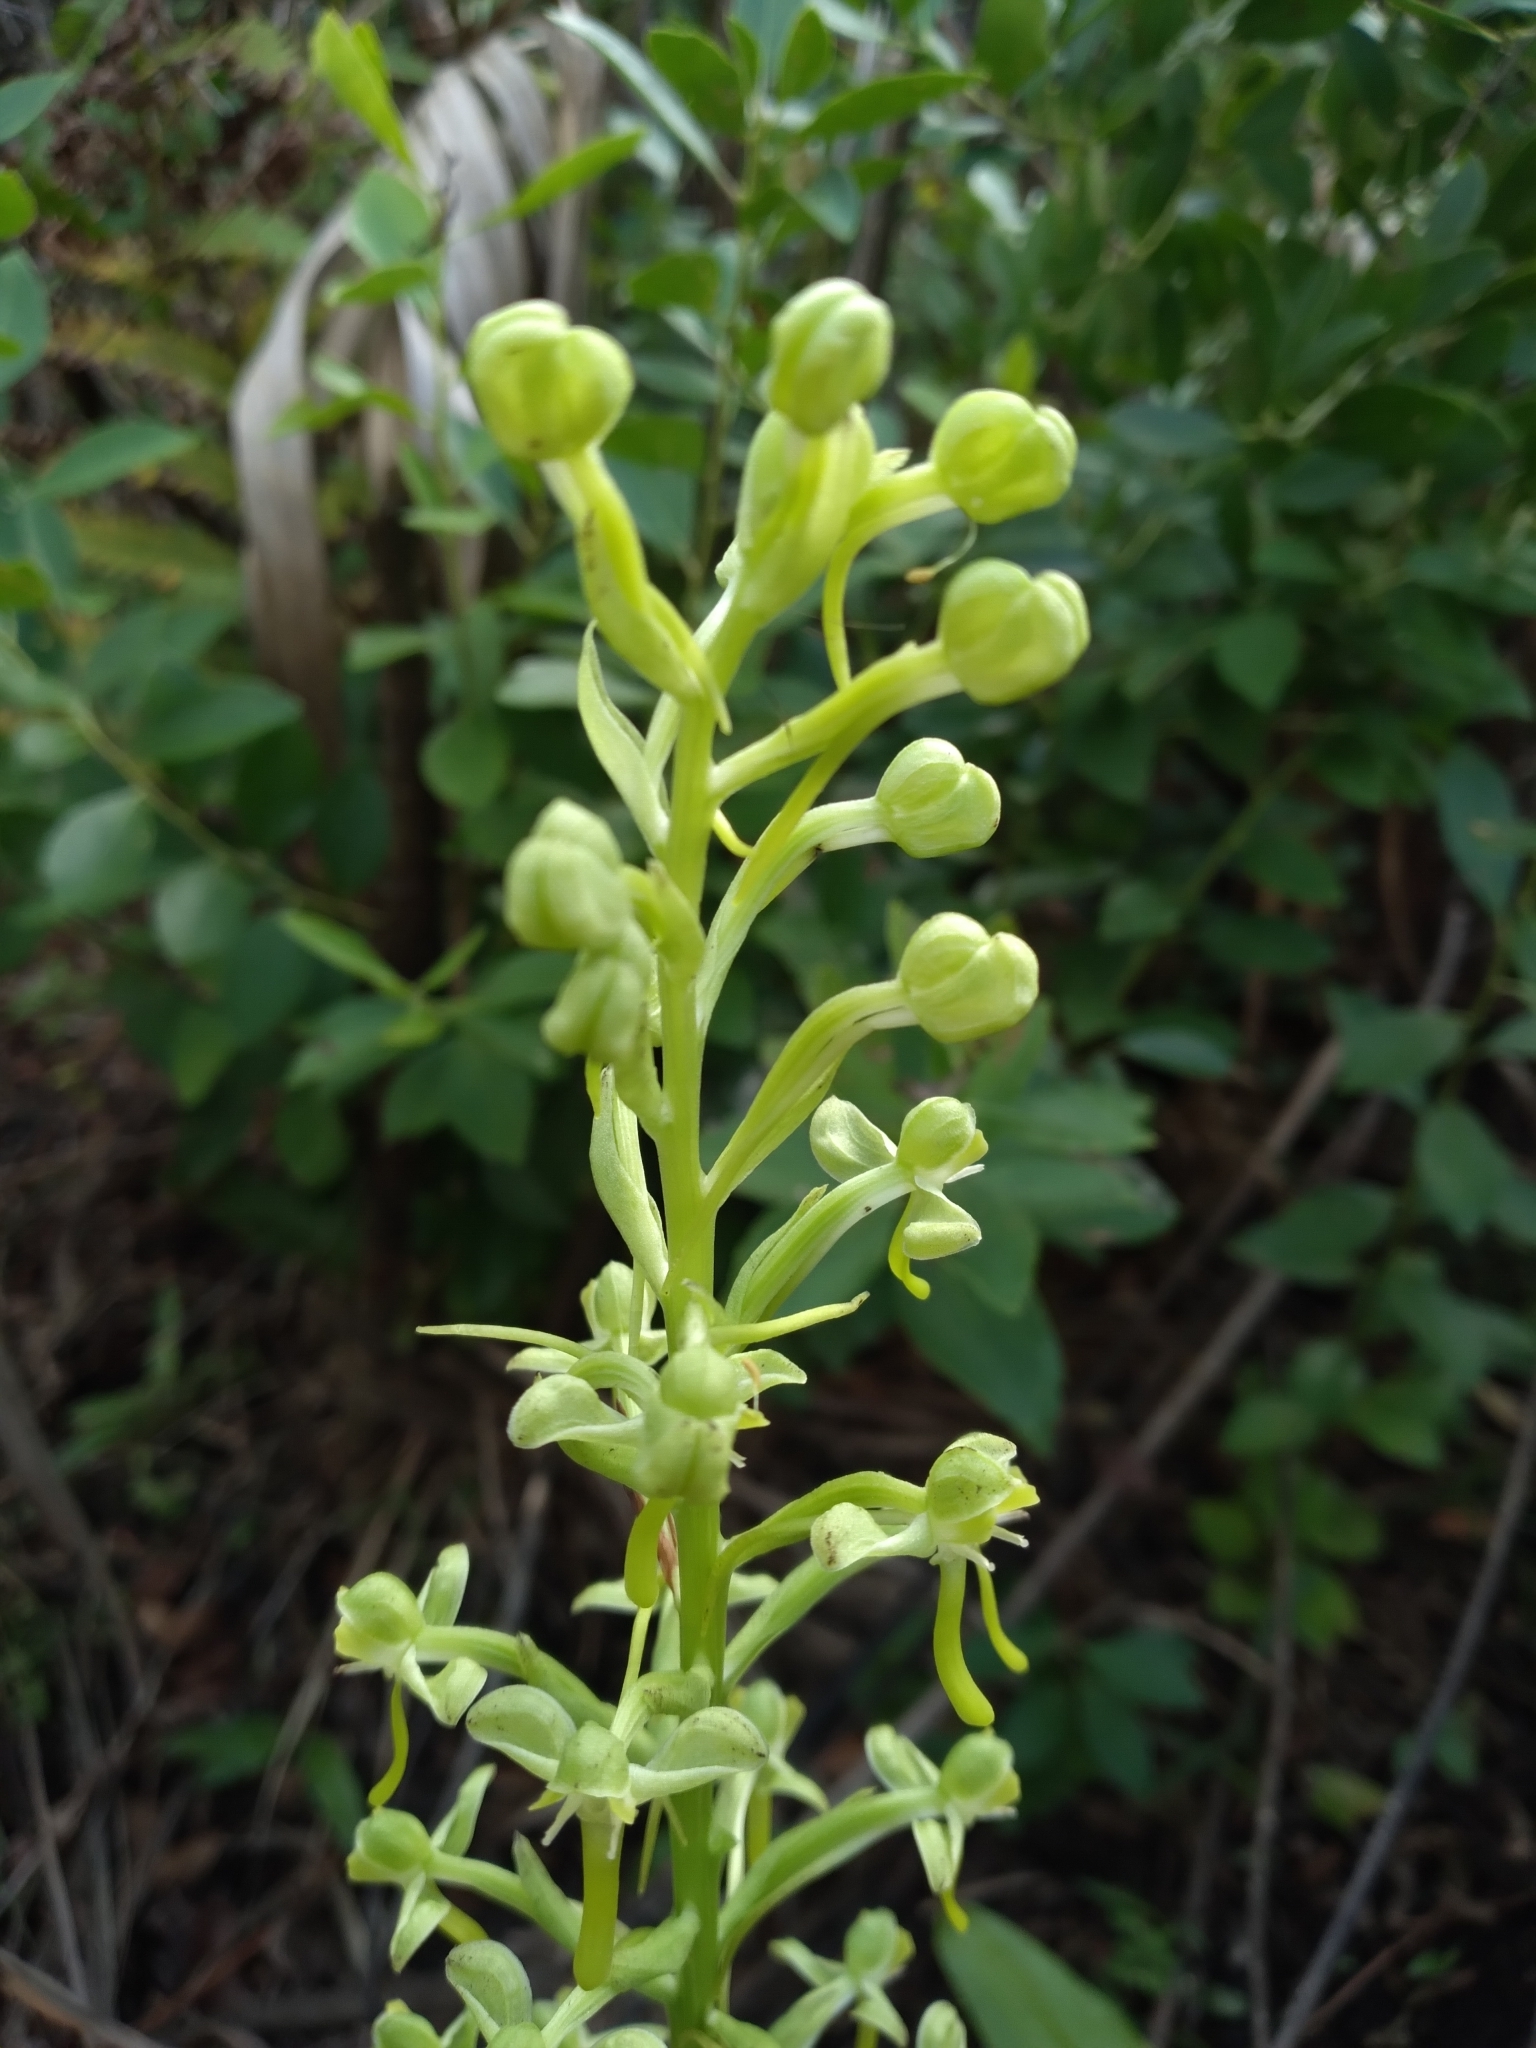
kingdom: Plantae
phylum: Tracheophyta
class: Liliopsida
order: Asparagales
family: Orchidaceae
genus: Habenaria
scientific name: Habenaria floribunda
